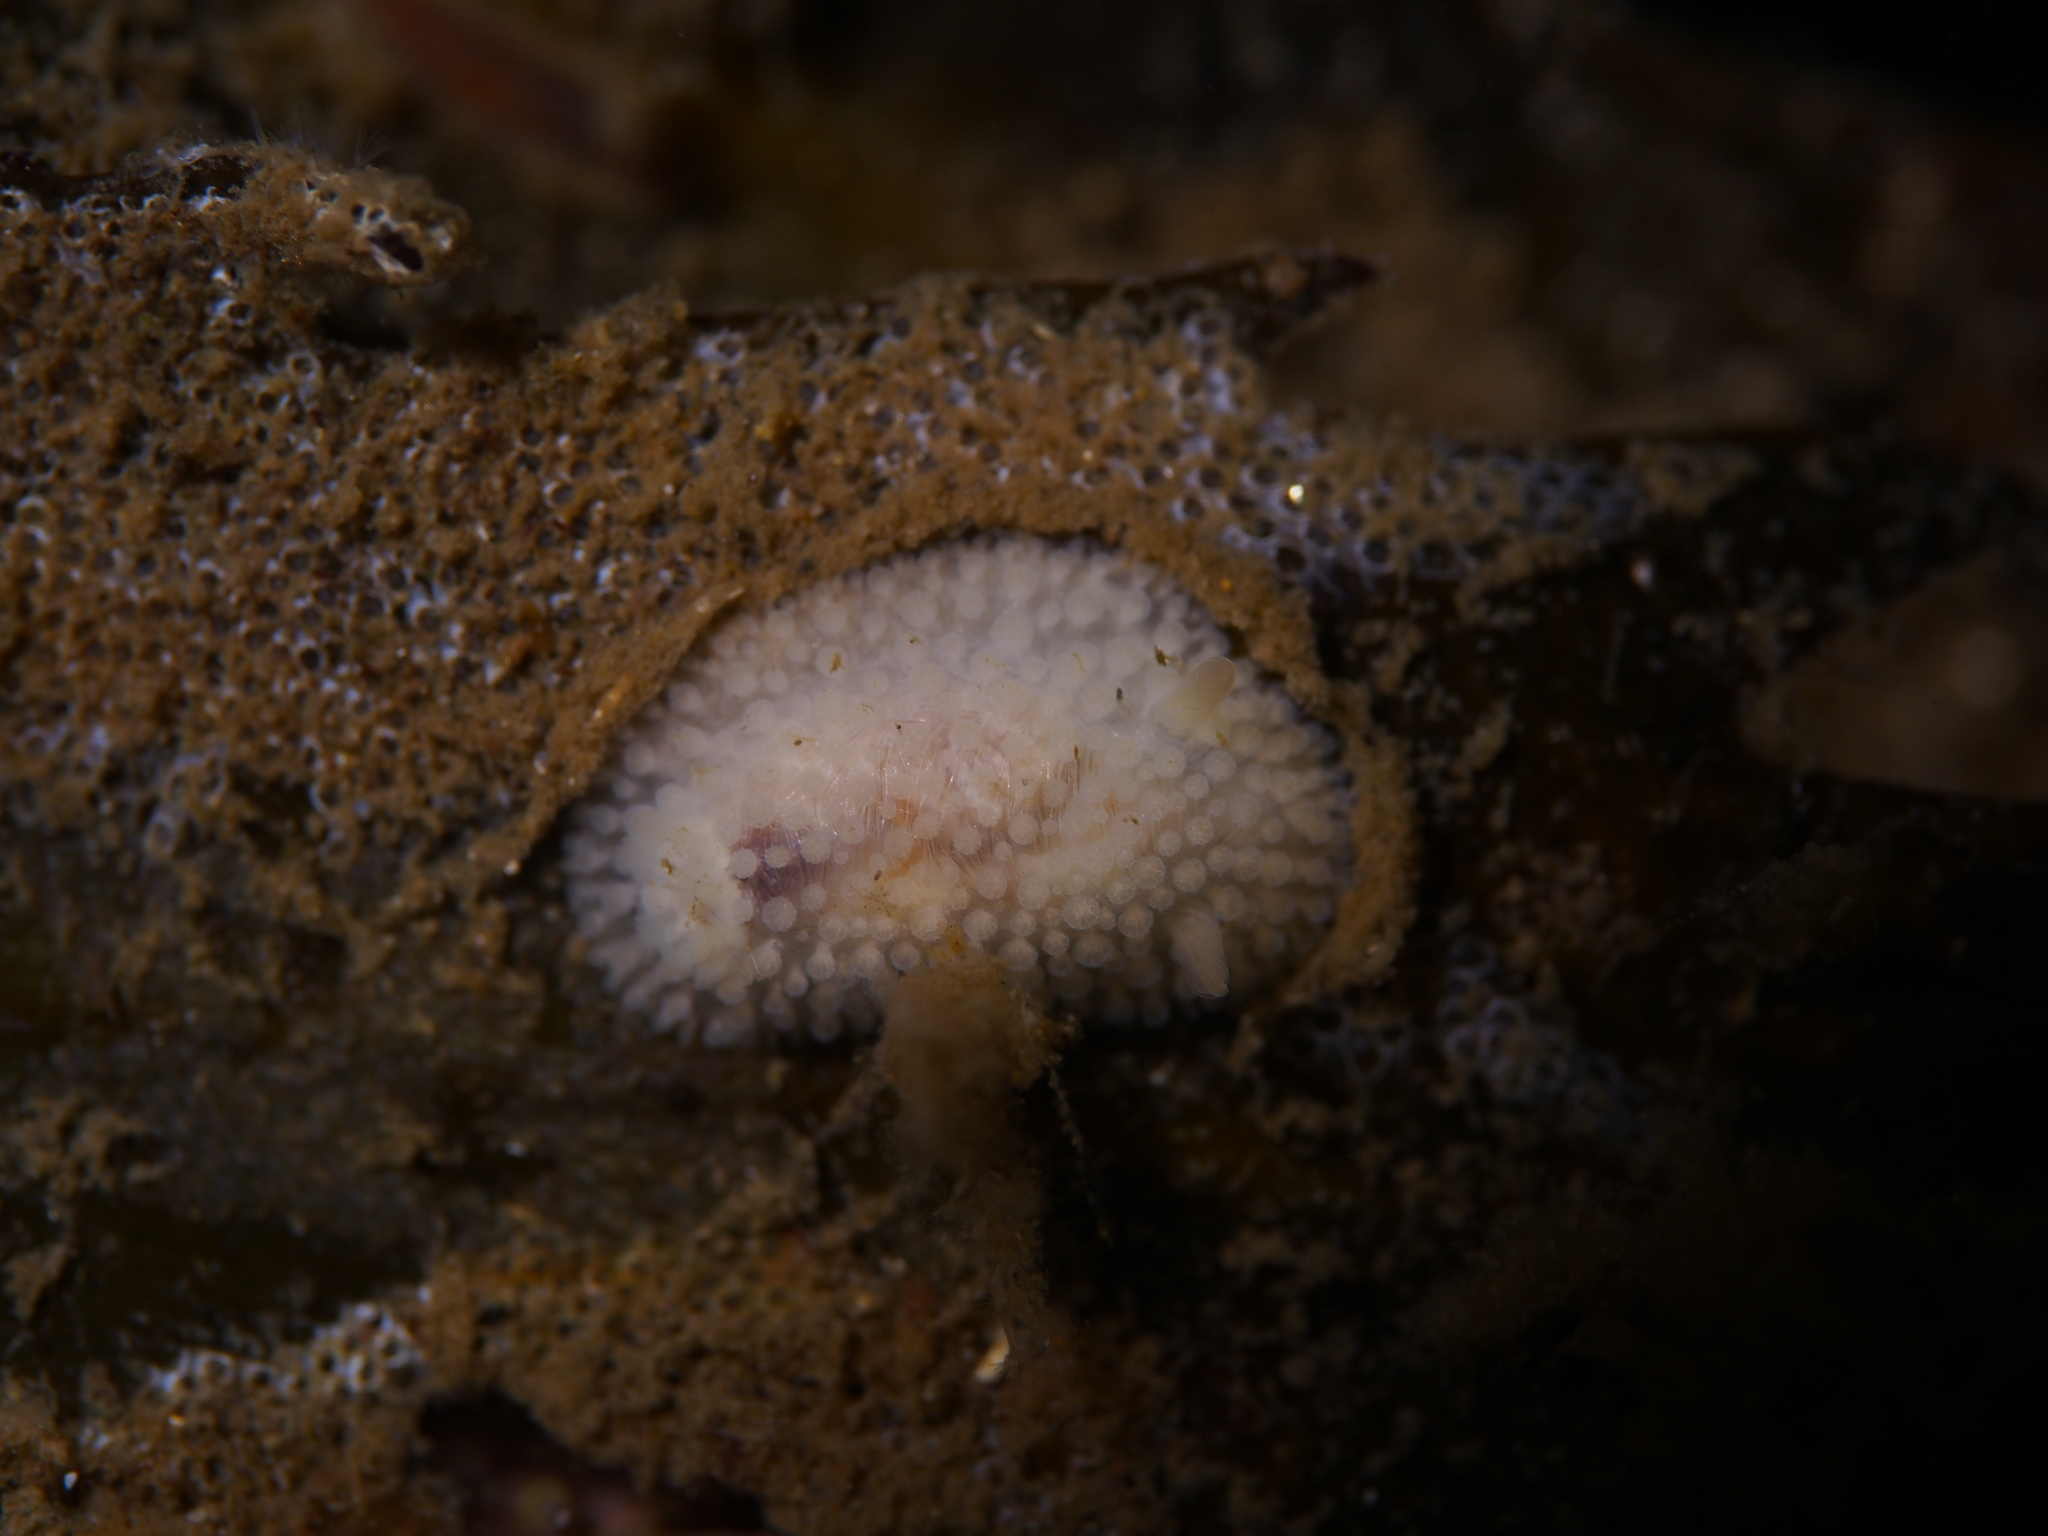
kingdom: Animalia
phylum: Mollusca
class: Gastropoda
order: Nudibranchia
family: Onchidorididae
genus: Onchidoris
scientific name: Onchidoris muricata
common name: Rough doris
